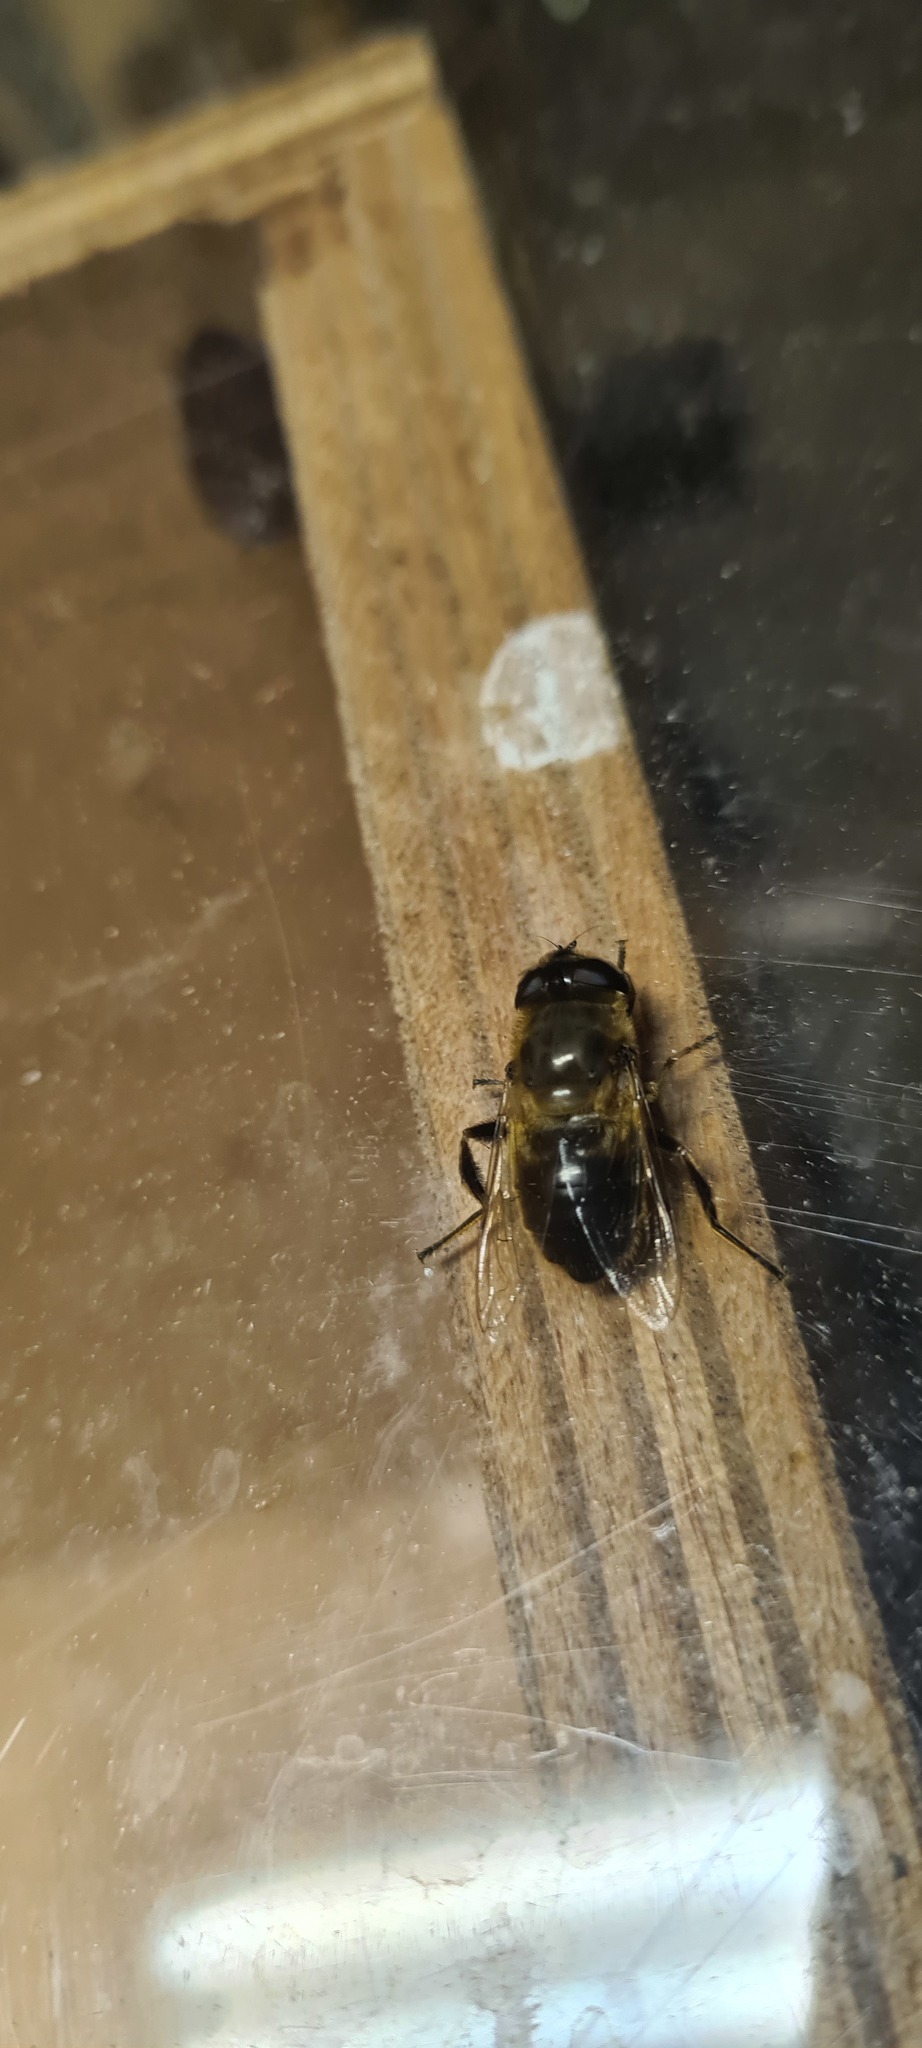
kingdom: Animalia
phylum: Arthropoda
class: Insecta
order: Diptera
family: Syrphidae
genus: Eristalis
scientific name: Eristalis tenax
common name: Drone fly
